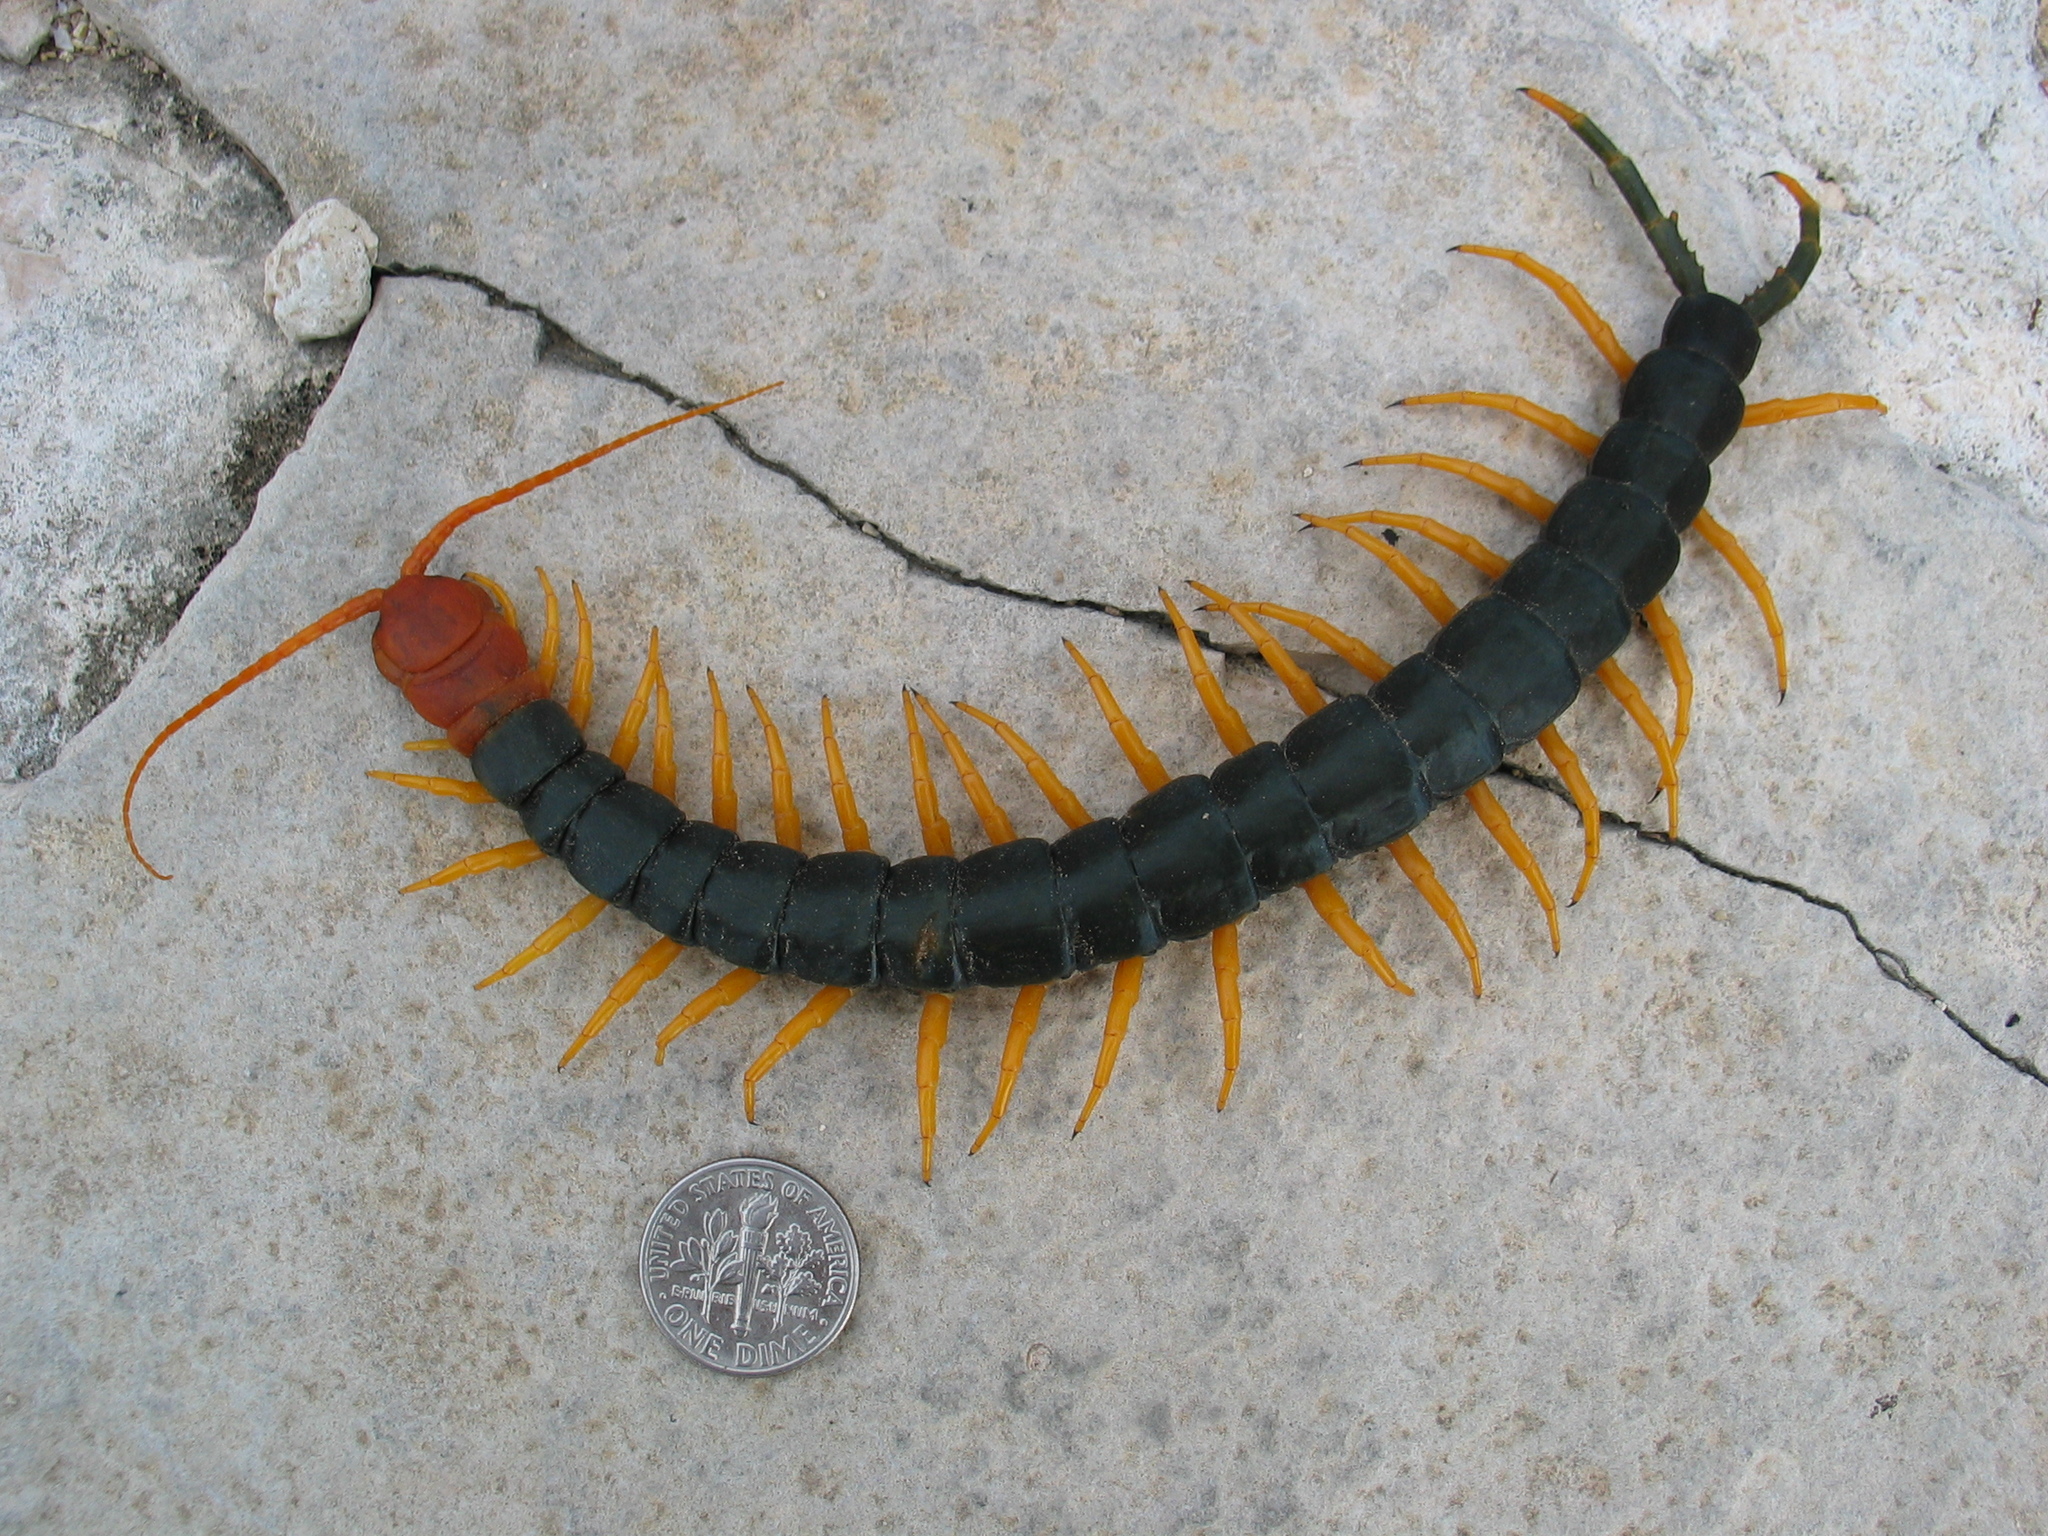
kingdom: Animalia
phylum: Arthropoda
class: Chilopoda
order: Scolopendromorpha
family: Scolopendridae
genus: Scolopendra
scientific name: Scolopendra heros
